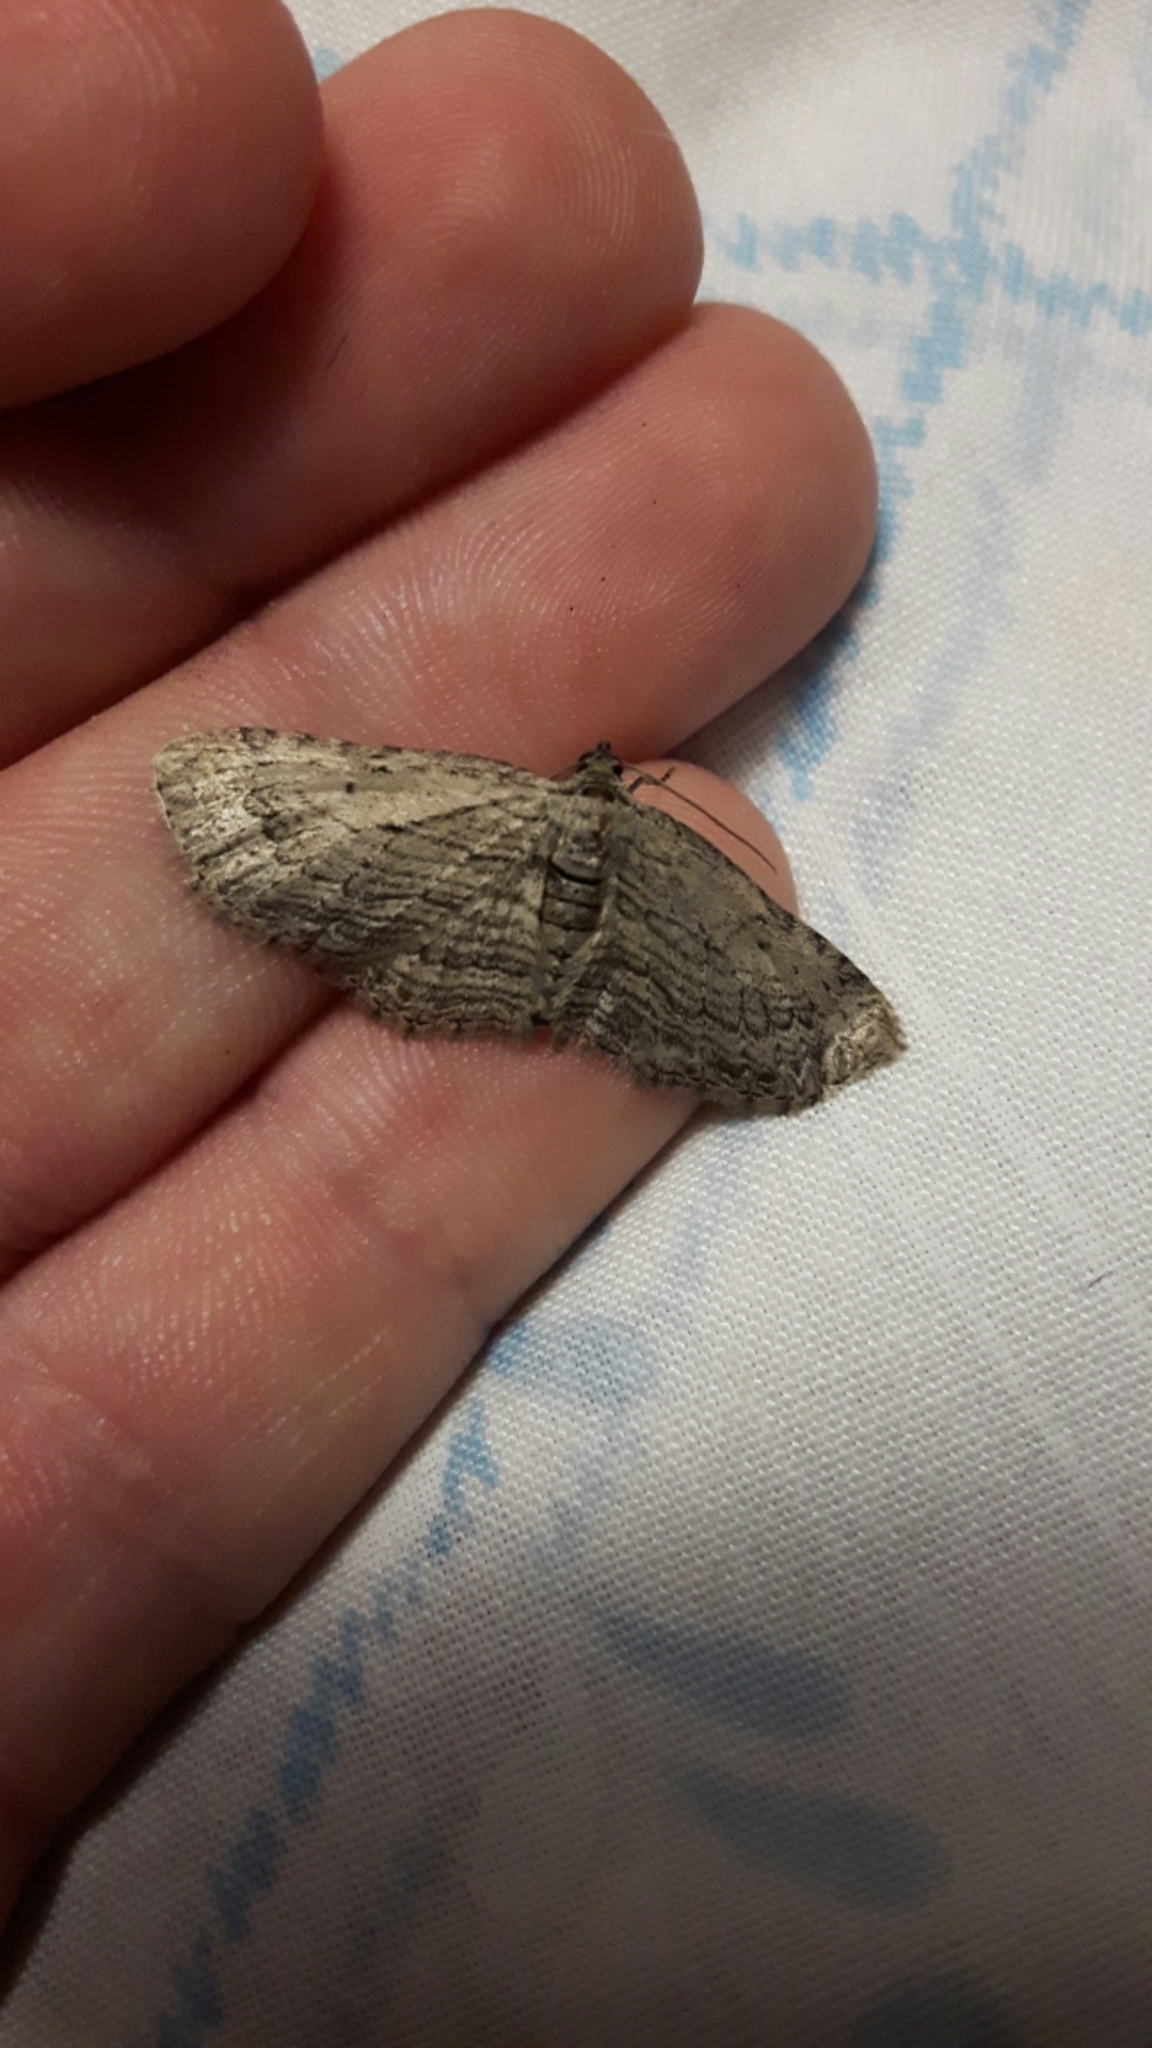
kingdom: Animalia
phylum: Arthropoda
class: Insecta
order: Lepidoptera
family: Geometridae
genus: Horisme
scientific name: Horisme intestinata
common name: Brown bark carpet
